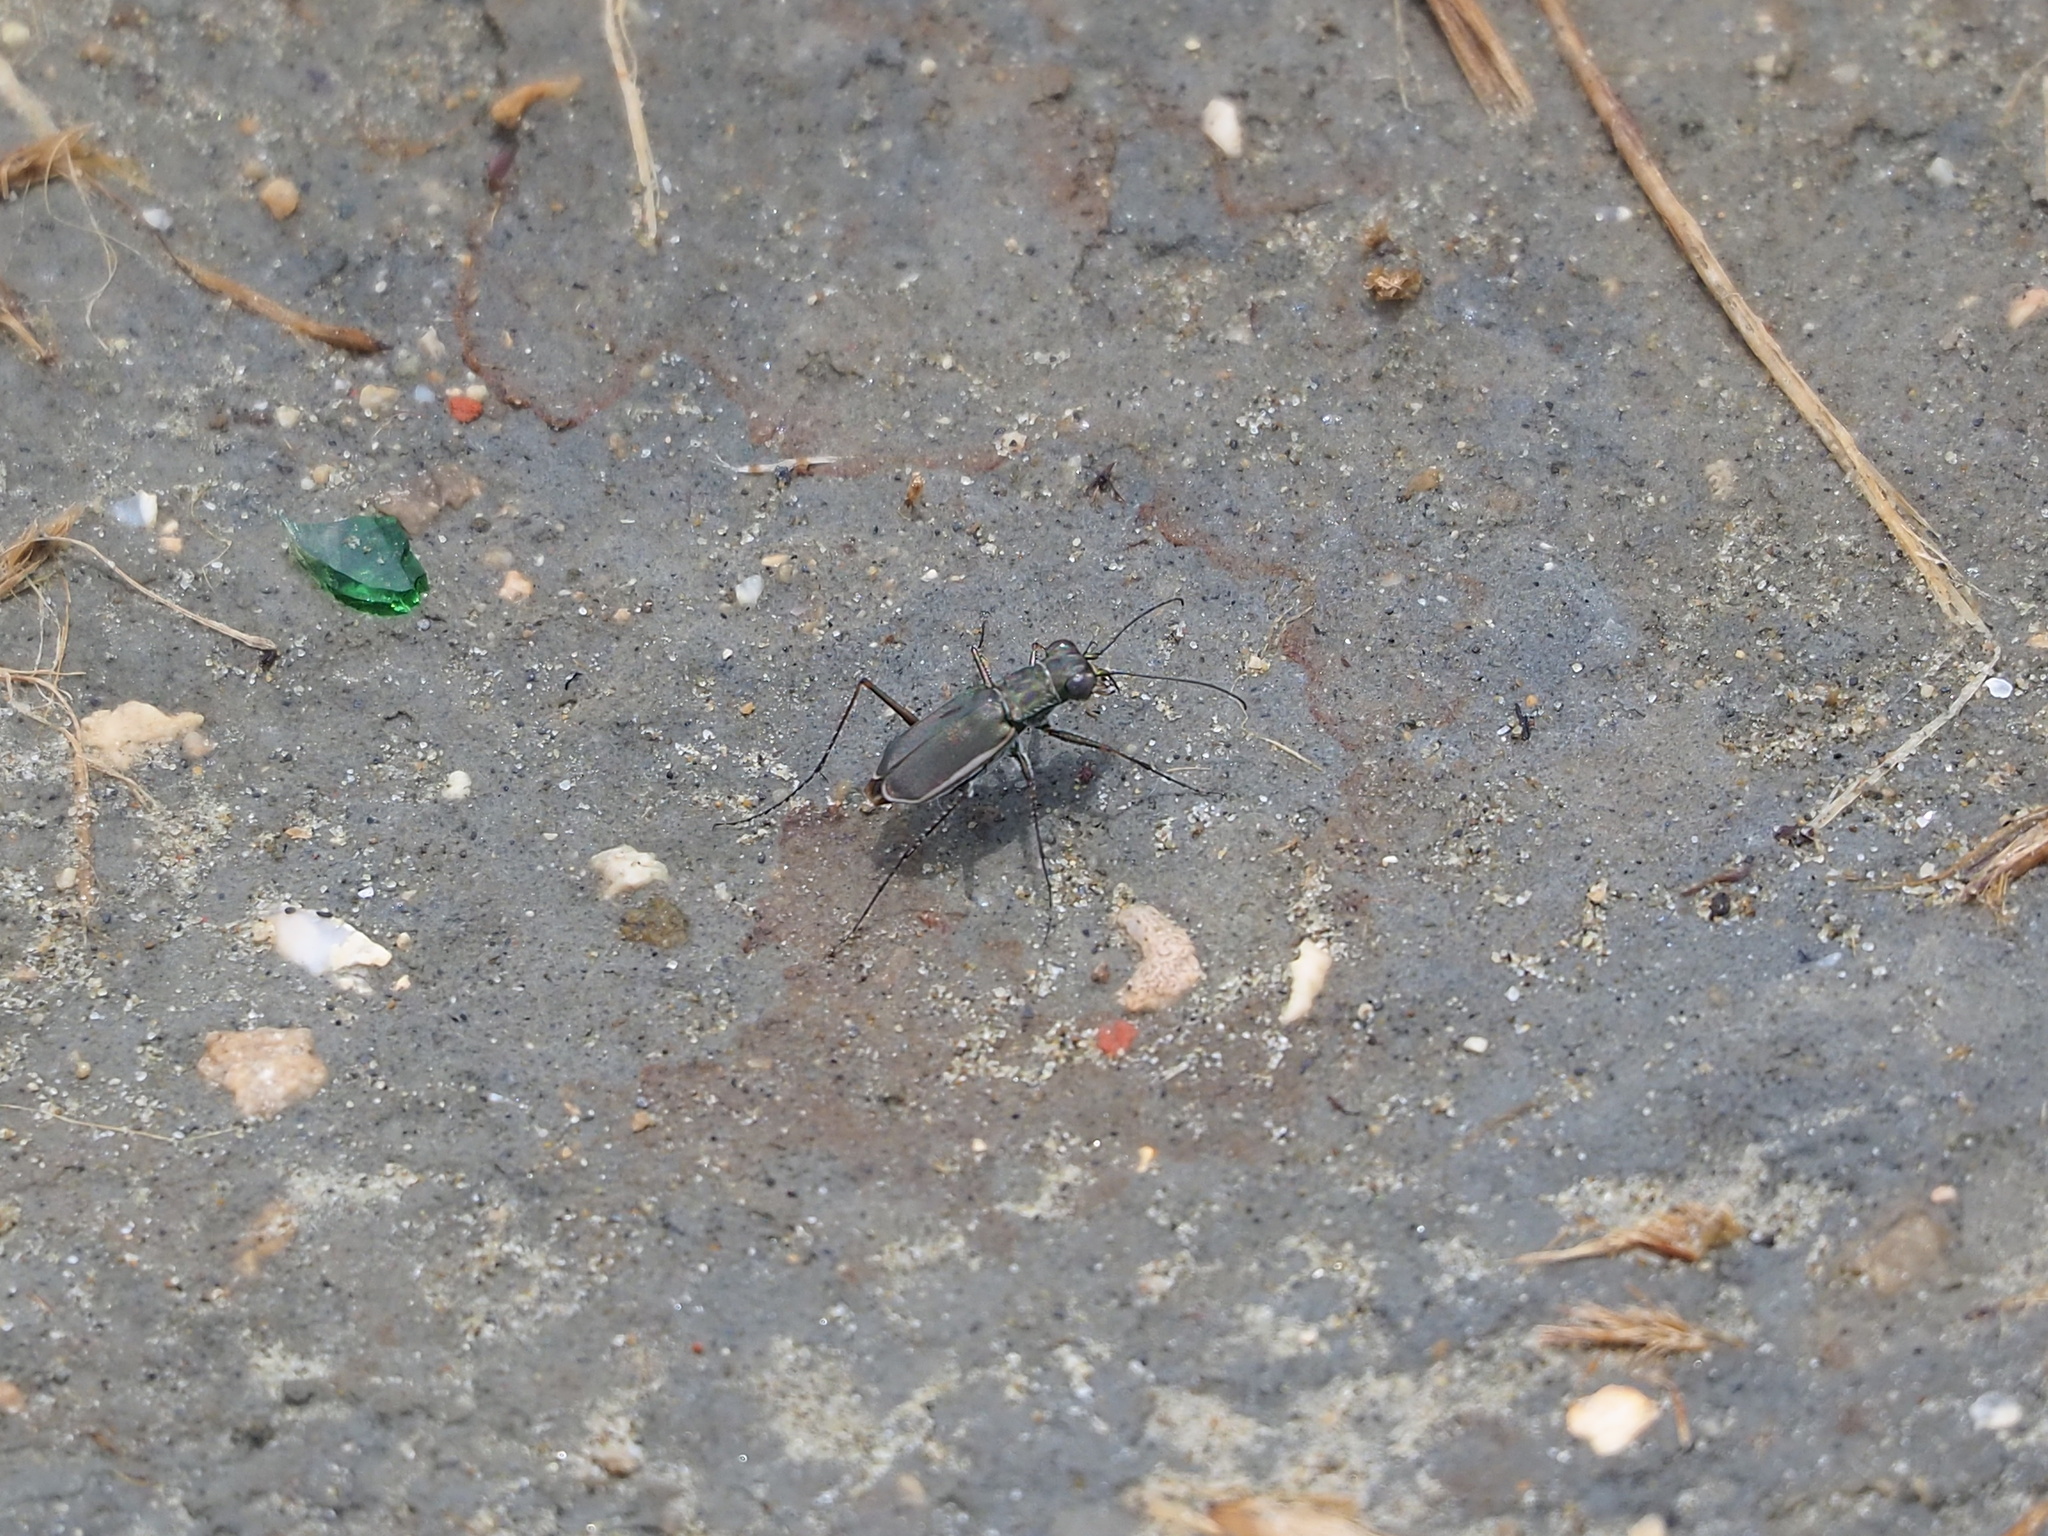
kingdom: Animalia
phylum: Arthropoda
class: Insecta
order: Coleoptera
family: Carabidae
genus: Callytron
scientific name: Callytron inspeculare
